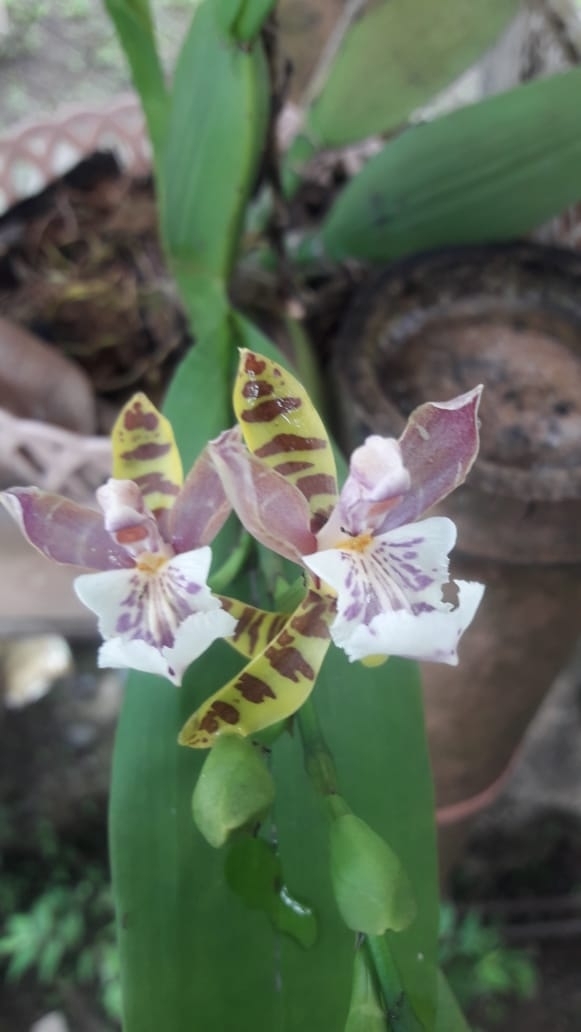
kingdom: Plantae
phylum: Tracheophyta
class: Liliopsida
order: Asparagales
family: Orchidaceae
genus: Aspasia
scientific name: Aspasia epidendroides
